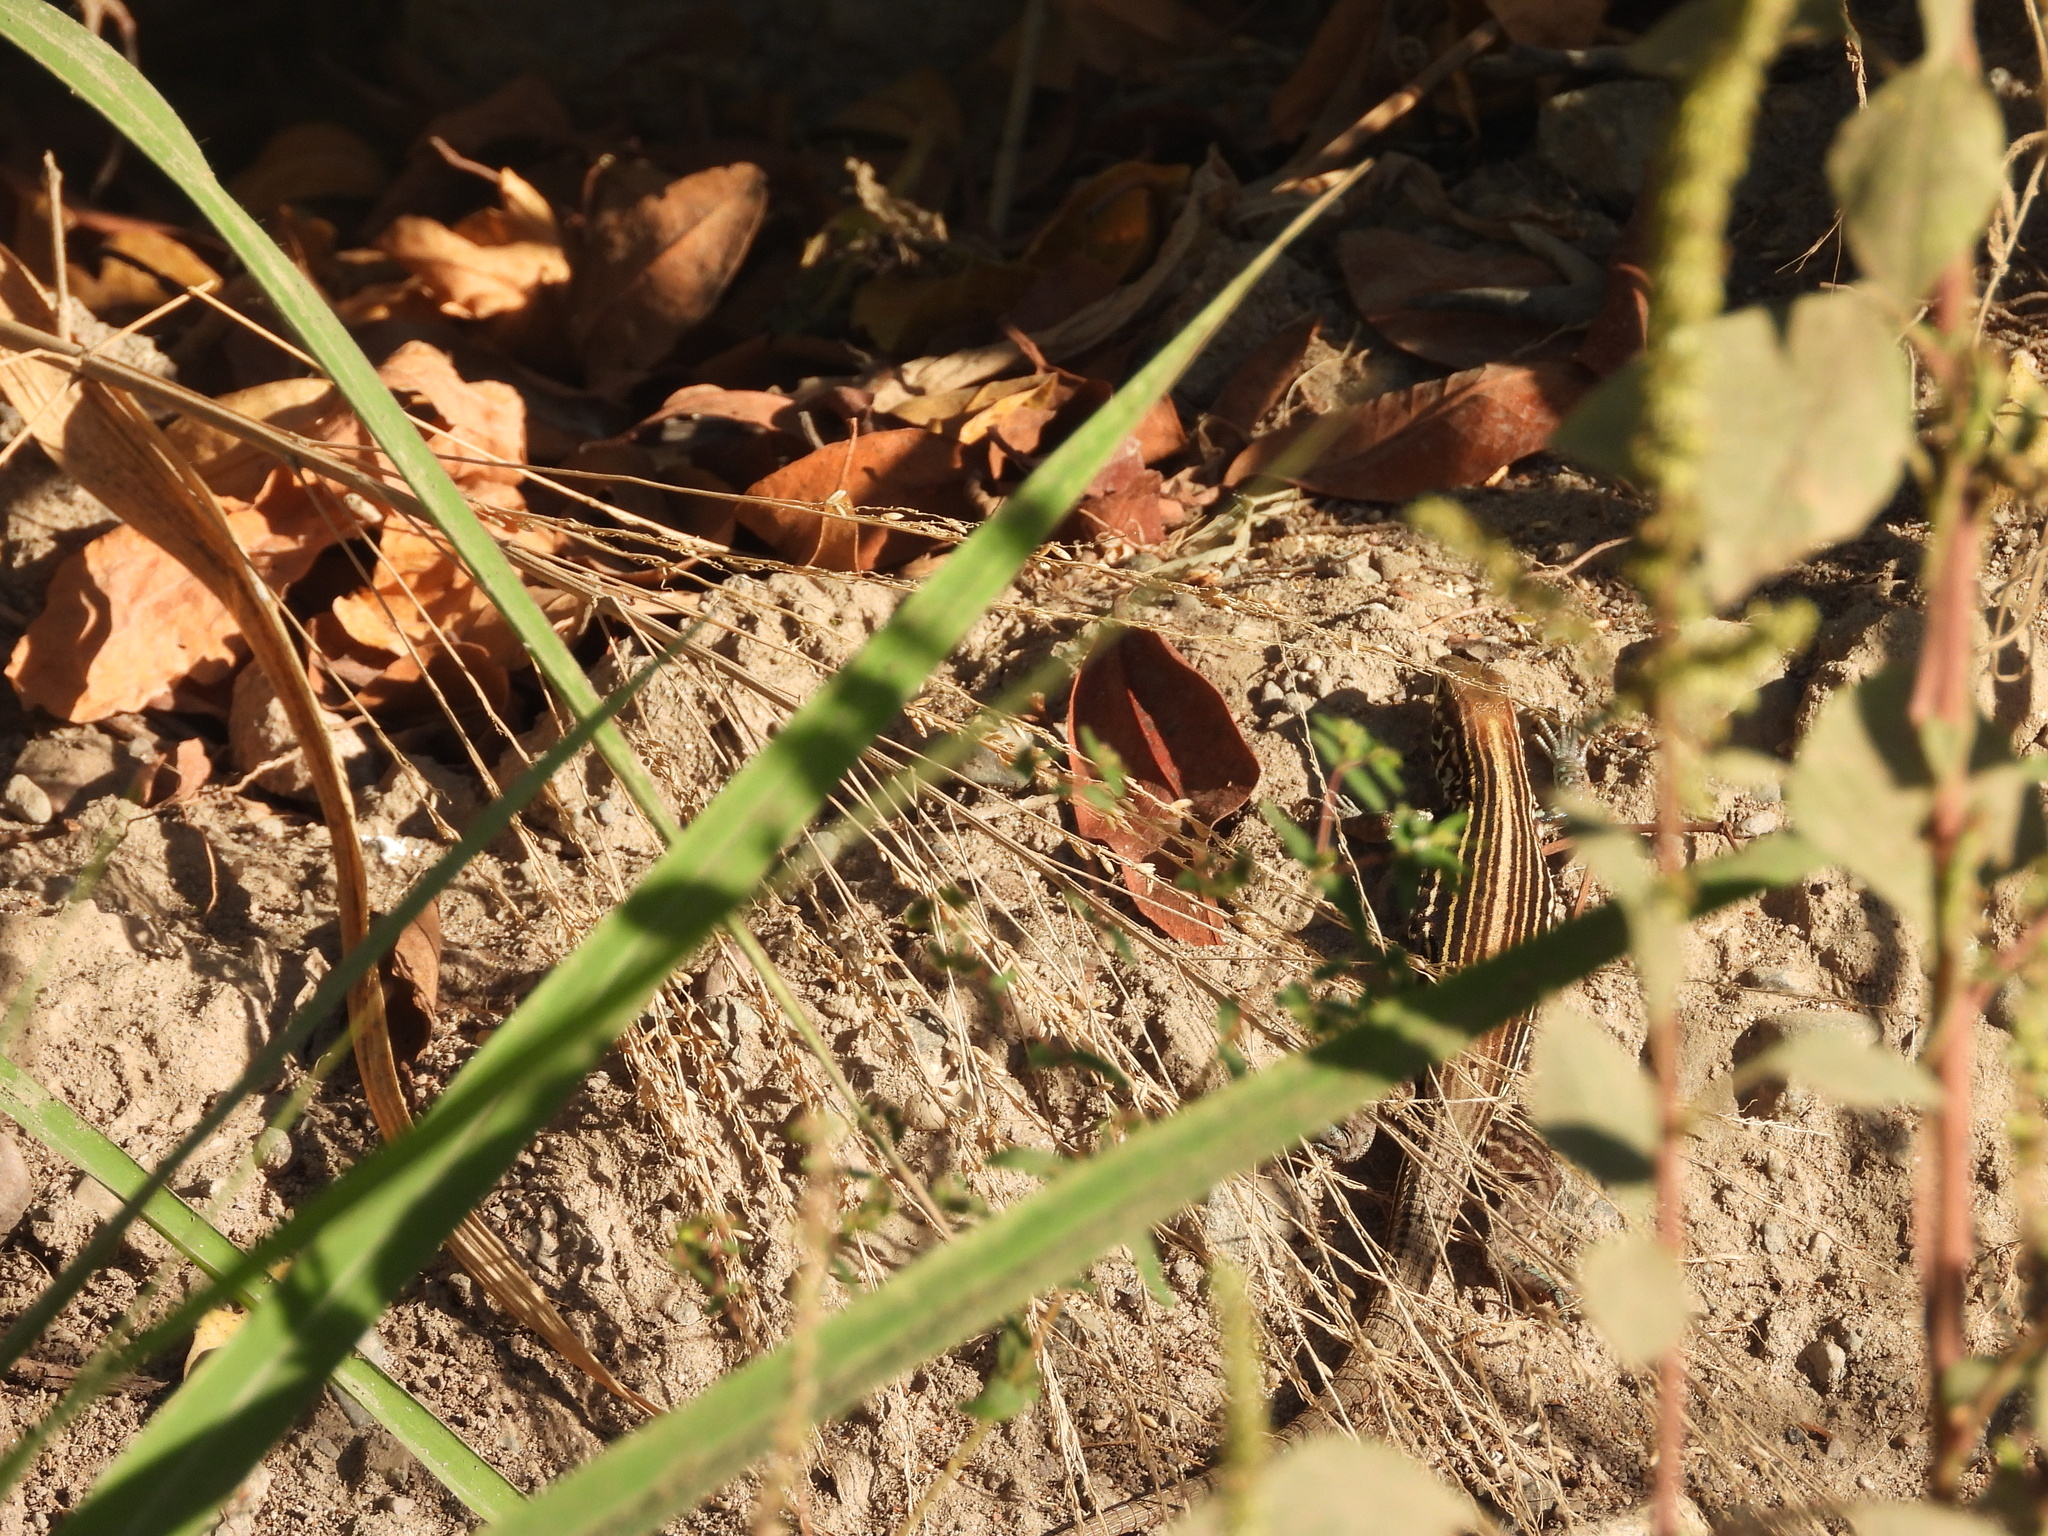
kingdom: Animalia
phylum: Chordata
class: Squamata
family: Teiidae
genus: Aspidoscelis
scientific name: Aspidoscelis lineattissimus
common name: Many-lined whiptail
